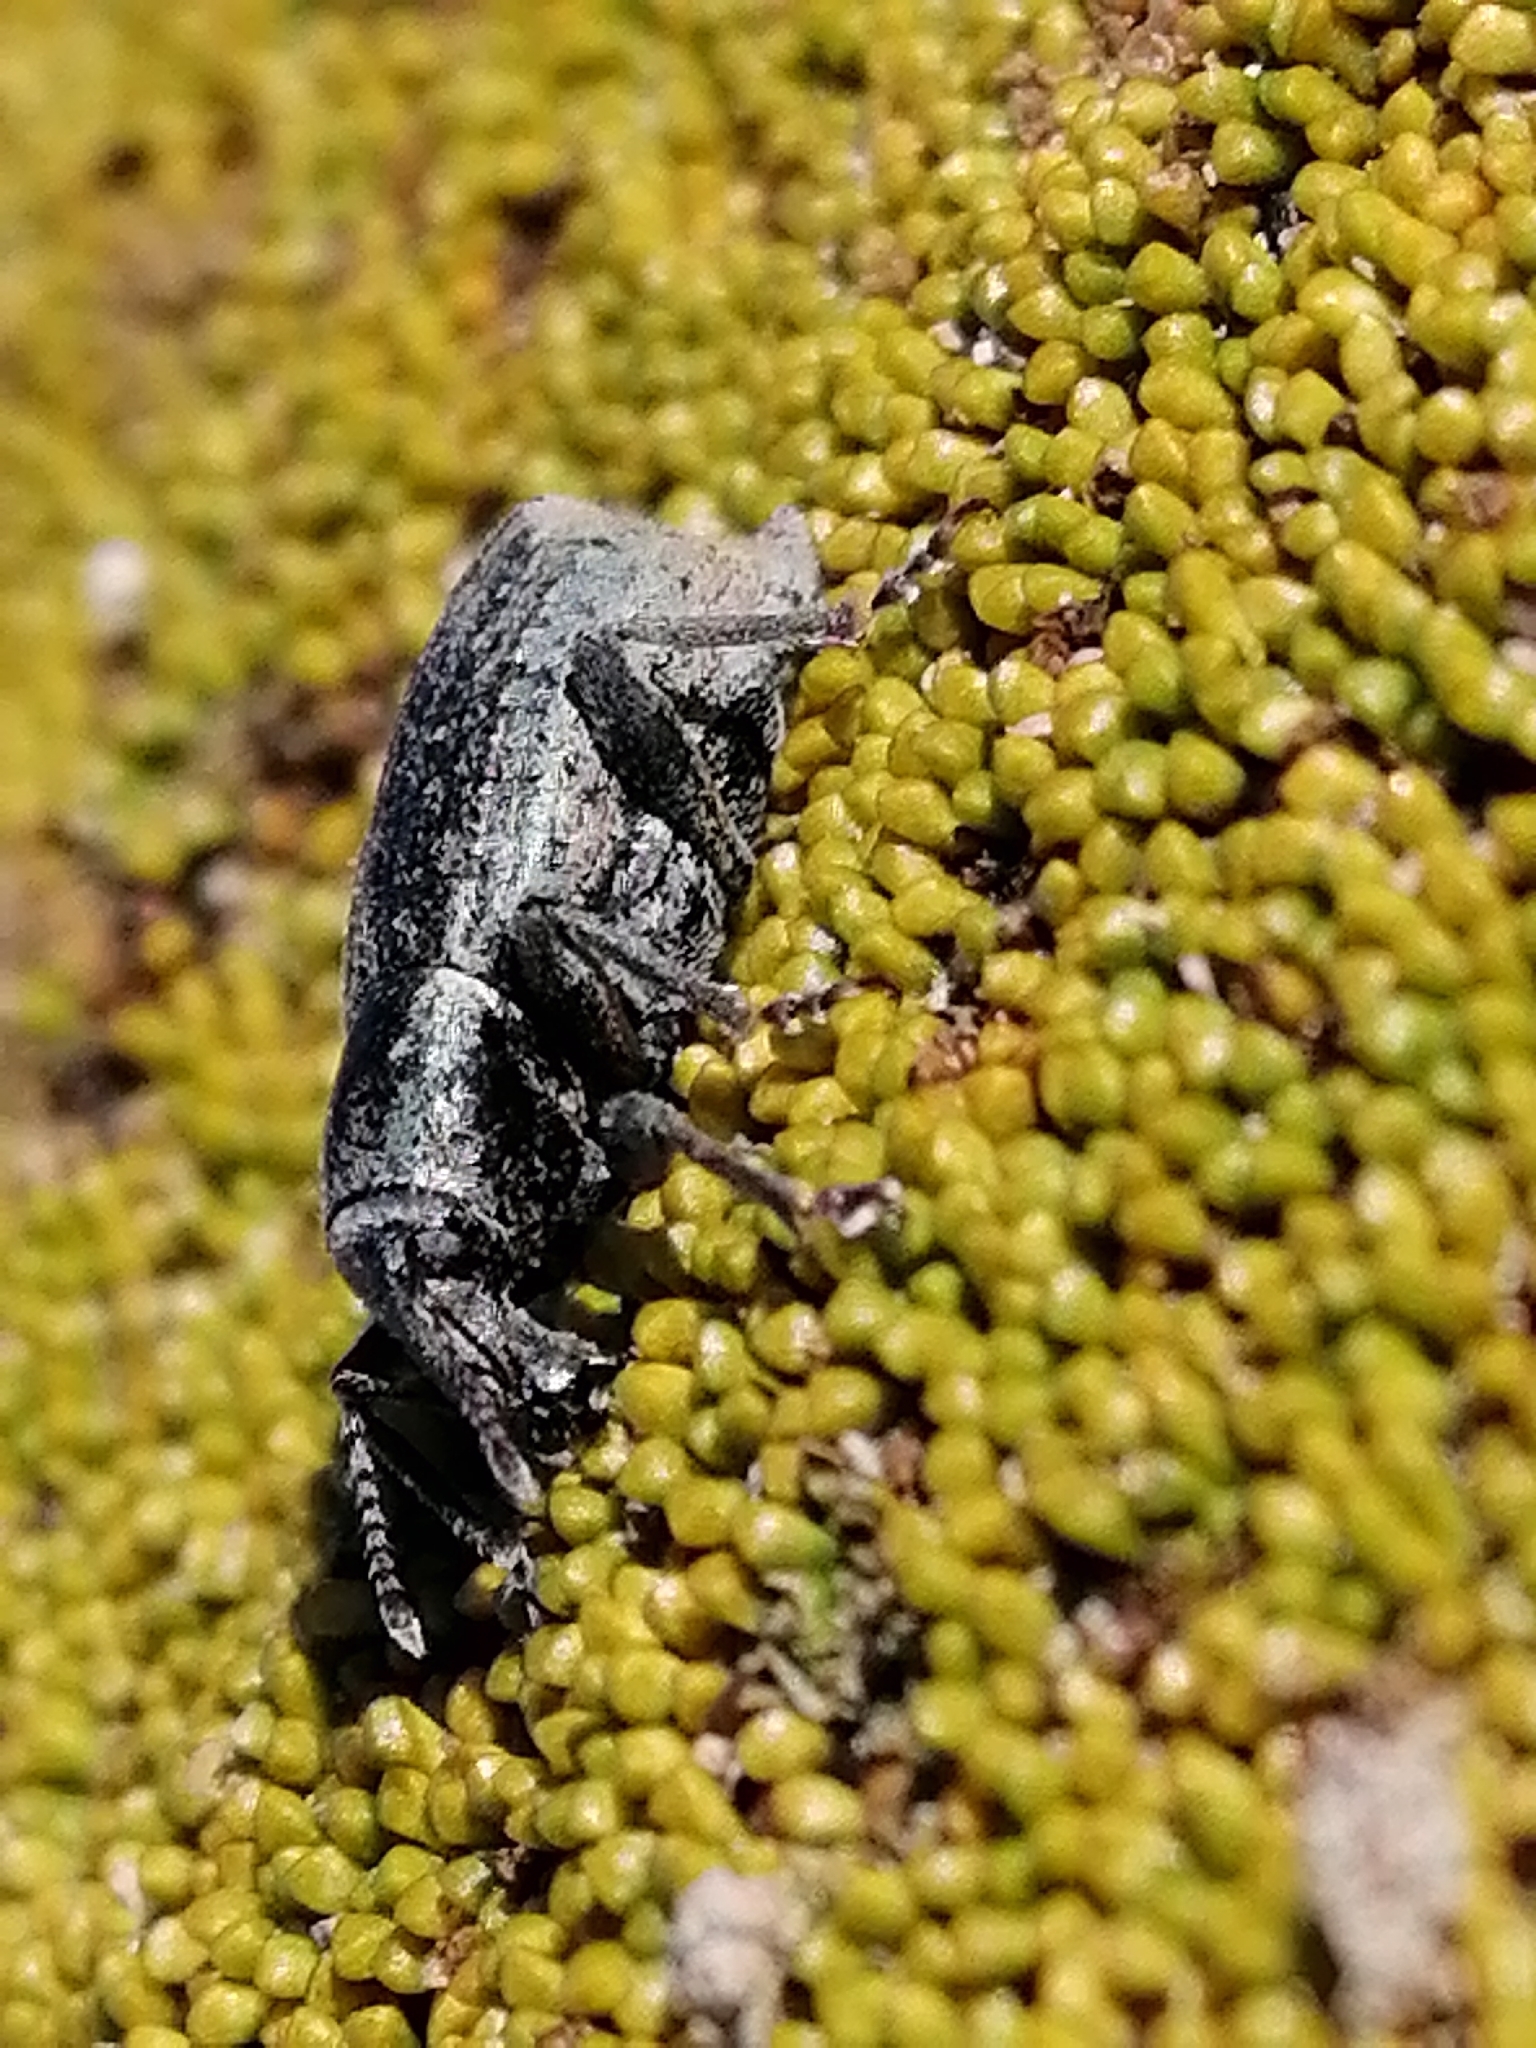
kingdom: Animalia
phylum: Arthropoda
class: Insecta
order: Coleoptera
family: Curculionidae
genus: Chalepistes
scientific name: Chalepistes pensus
